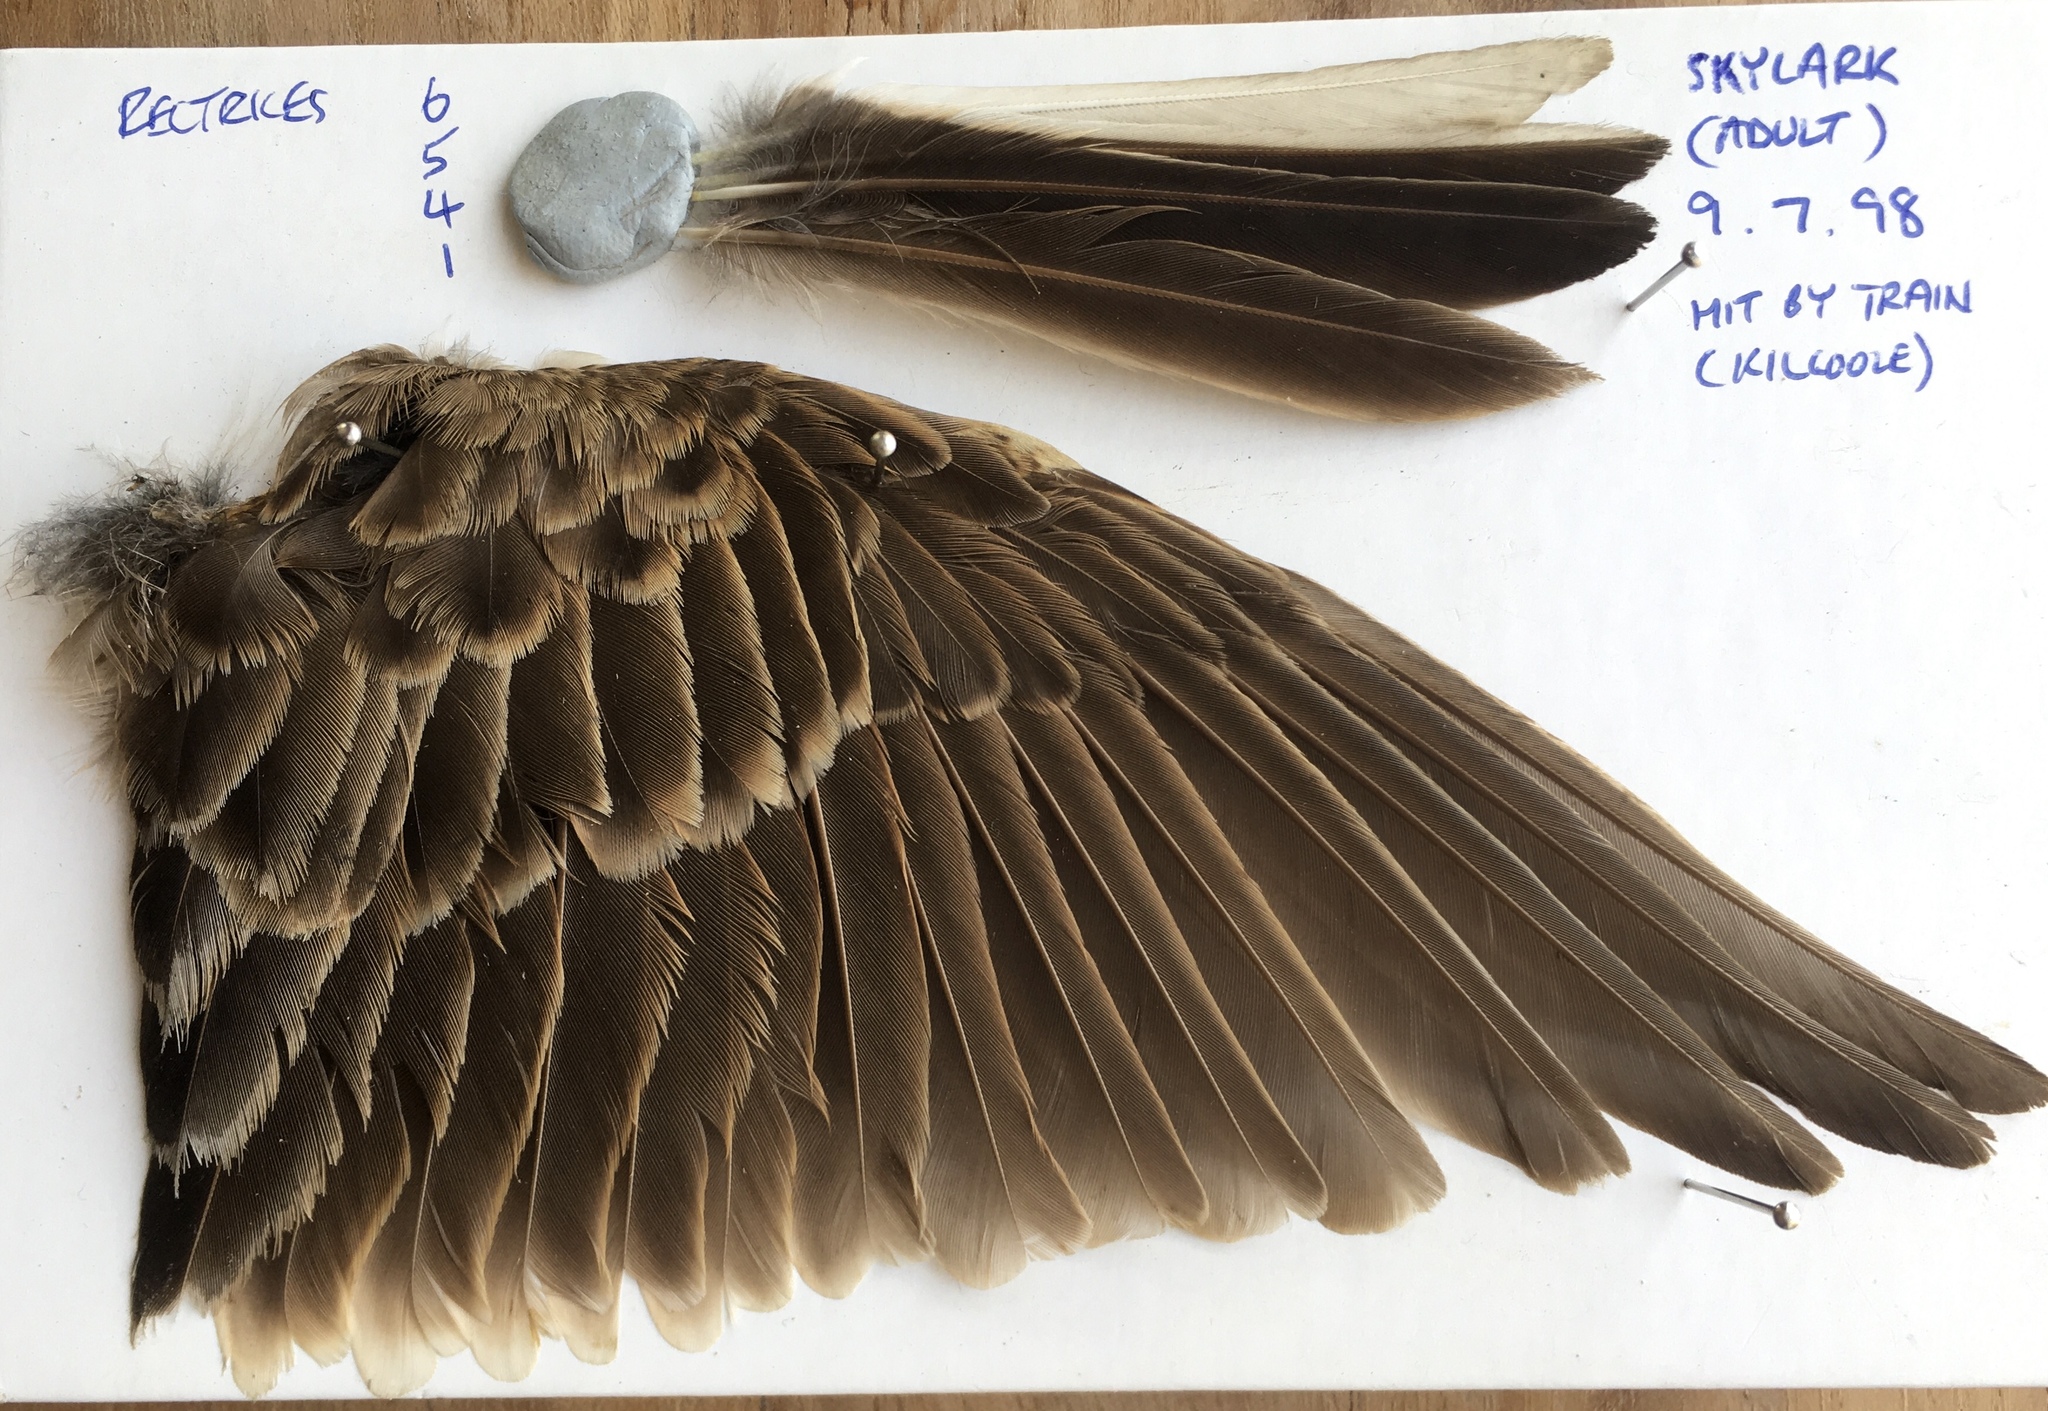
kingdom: Animalia
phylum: Chordata
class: Aves
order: Passeriformes
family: Alaudidae
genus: Alauda
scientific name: Alauda arvensis
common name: Eurasian skylark
